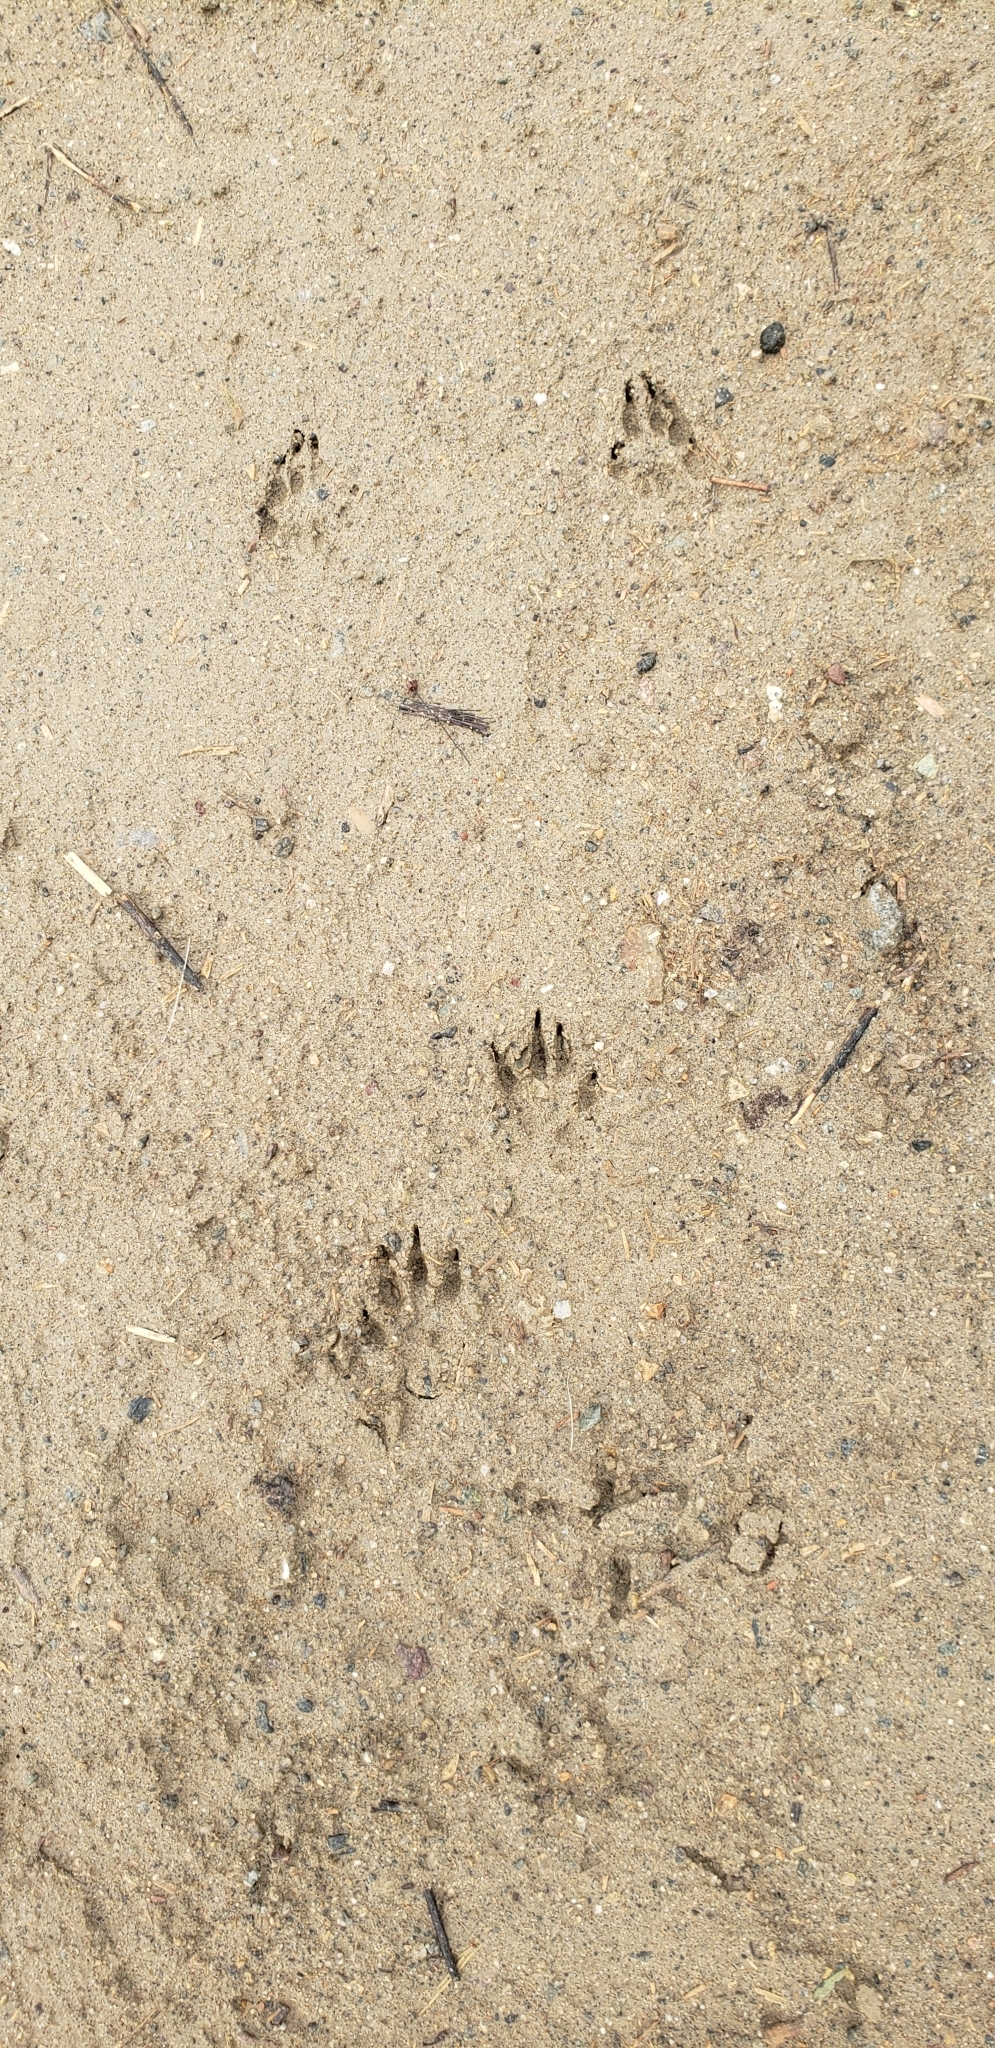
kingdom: Animalia
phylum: Chordata
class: Mammalia
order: Rodentia
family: Sciuridae
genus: Otospermophilus
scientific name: Otospermophilus beecheyi
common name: California ground squirrel
